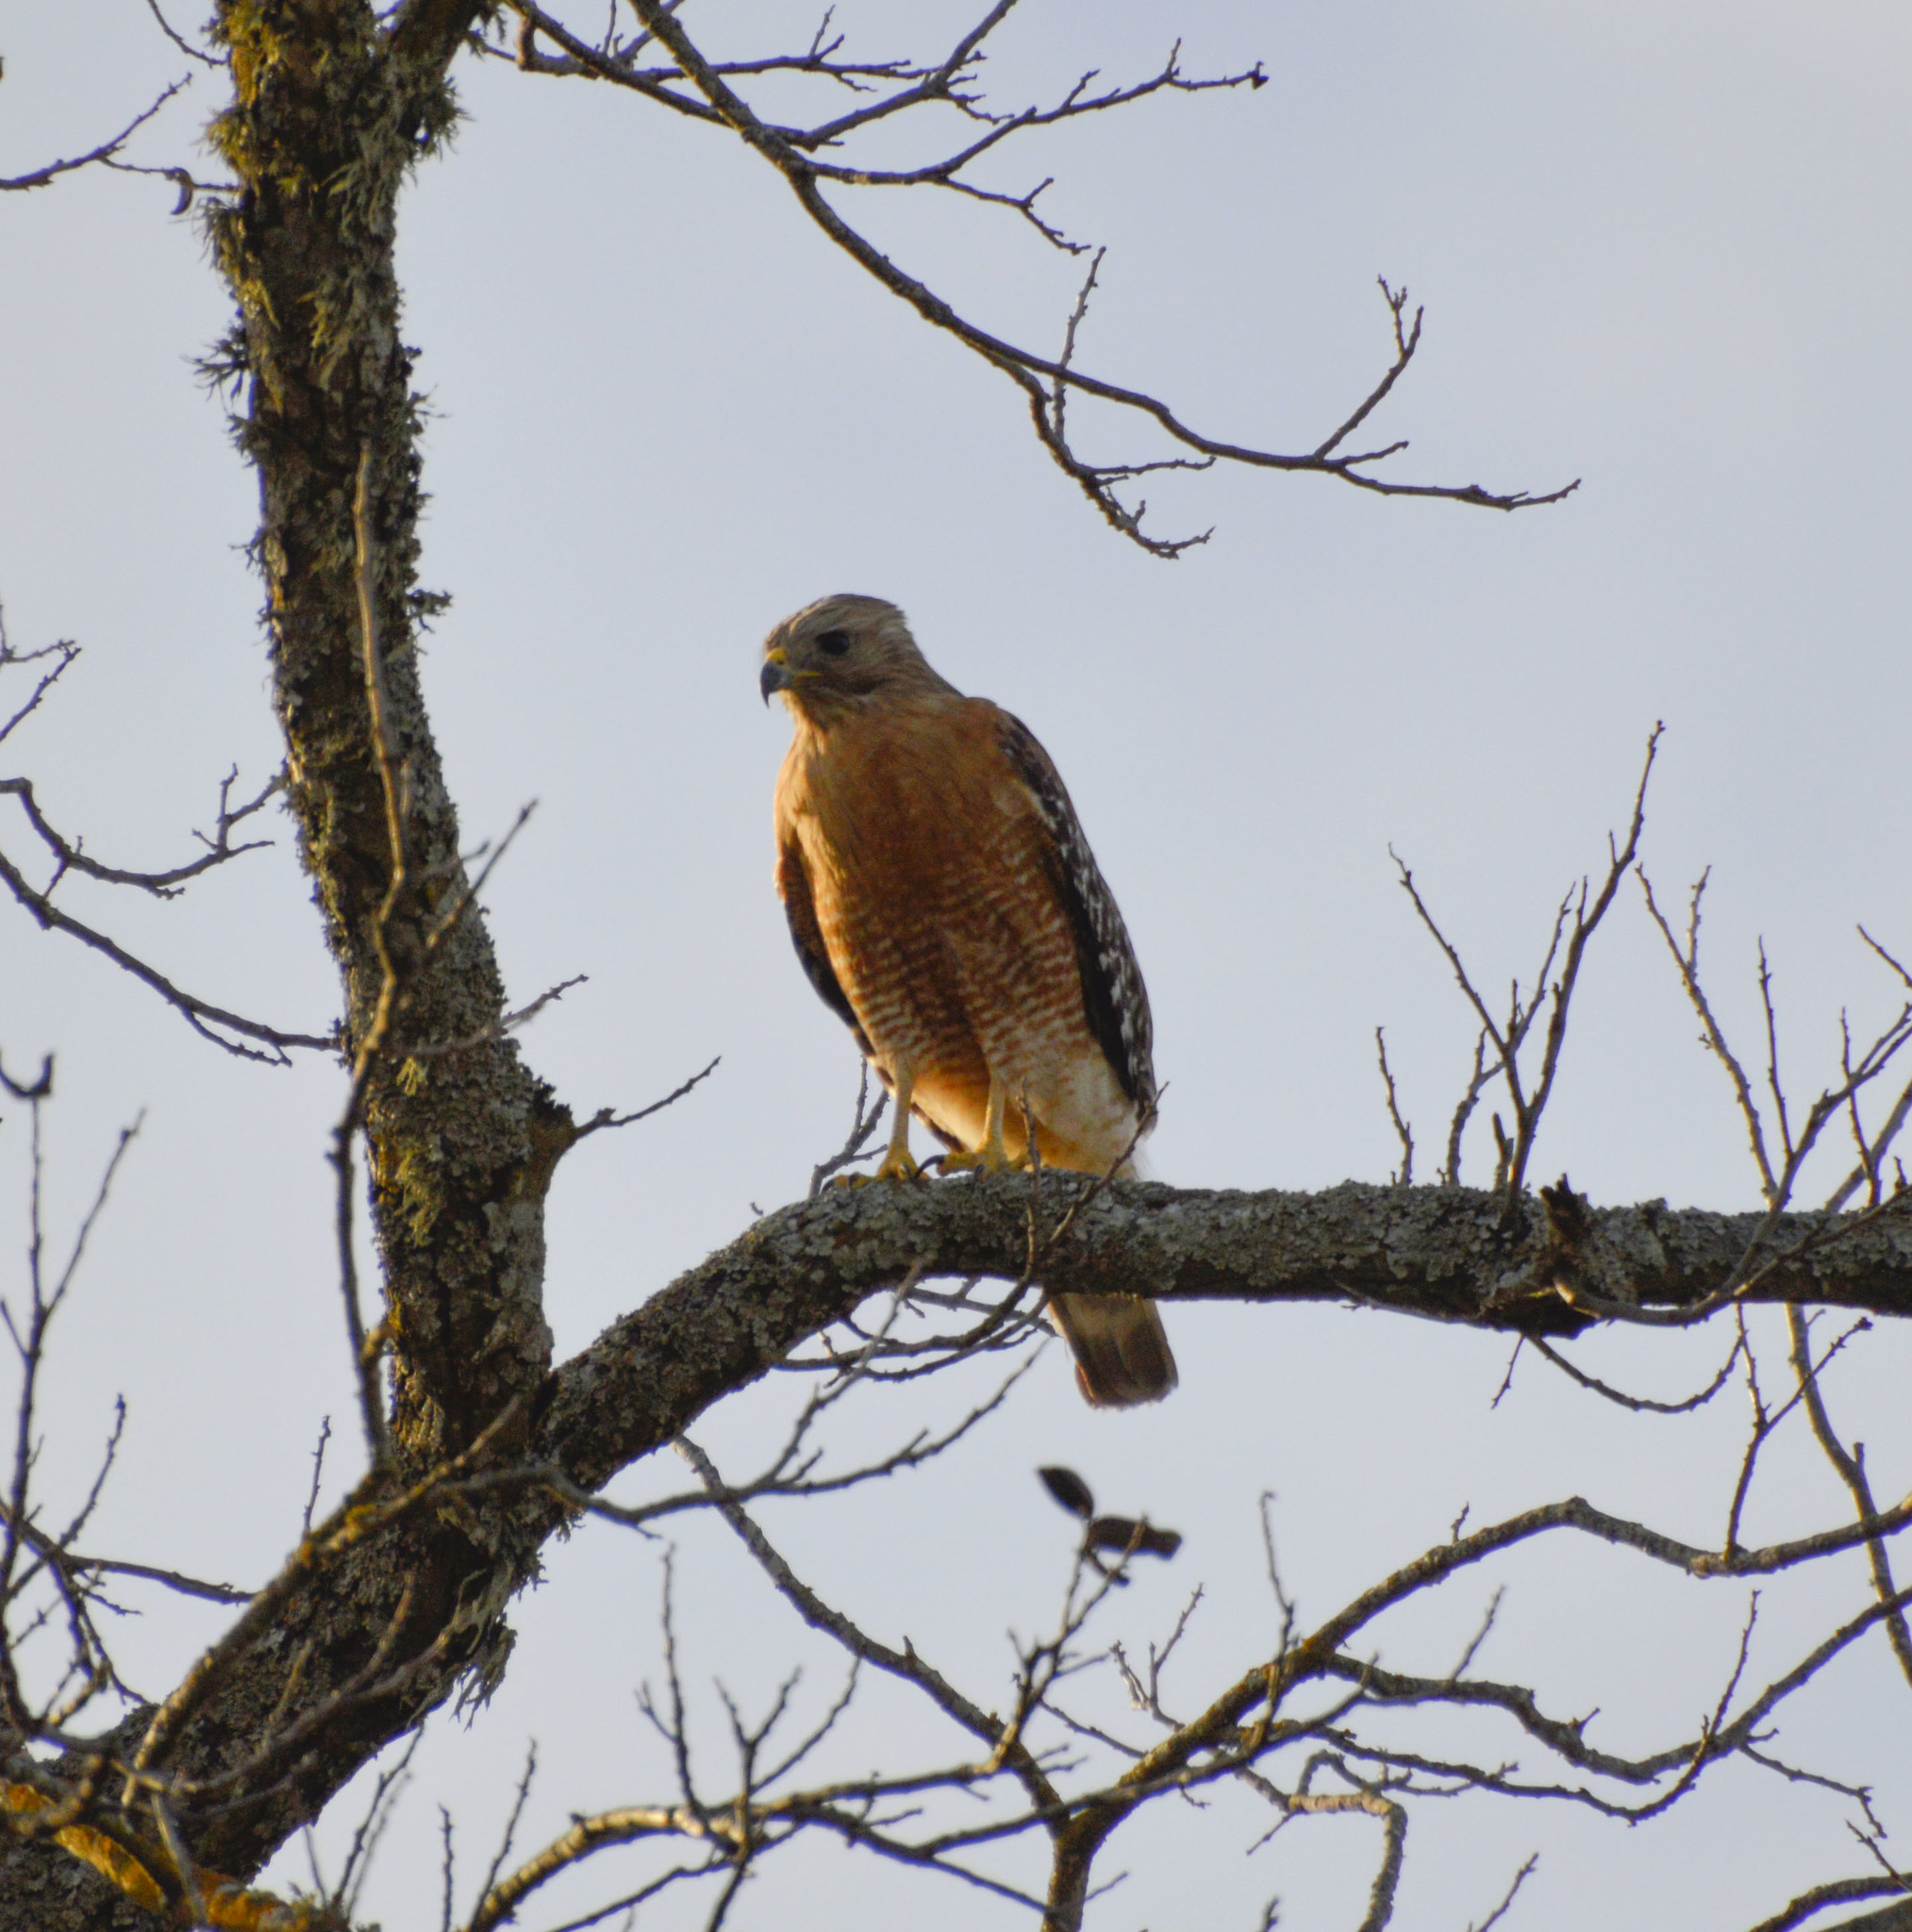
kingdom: Animalia
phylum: Chordata
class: Aves
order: Accipitriformes
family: Accipitridae
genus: Buteo
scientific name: Buteo lineatus
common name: Red-shouldered hawk
